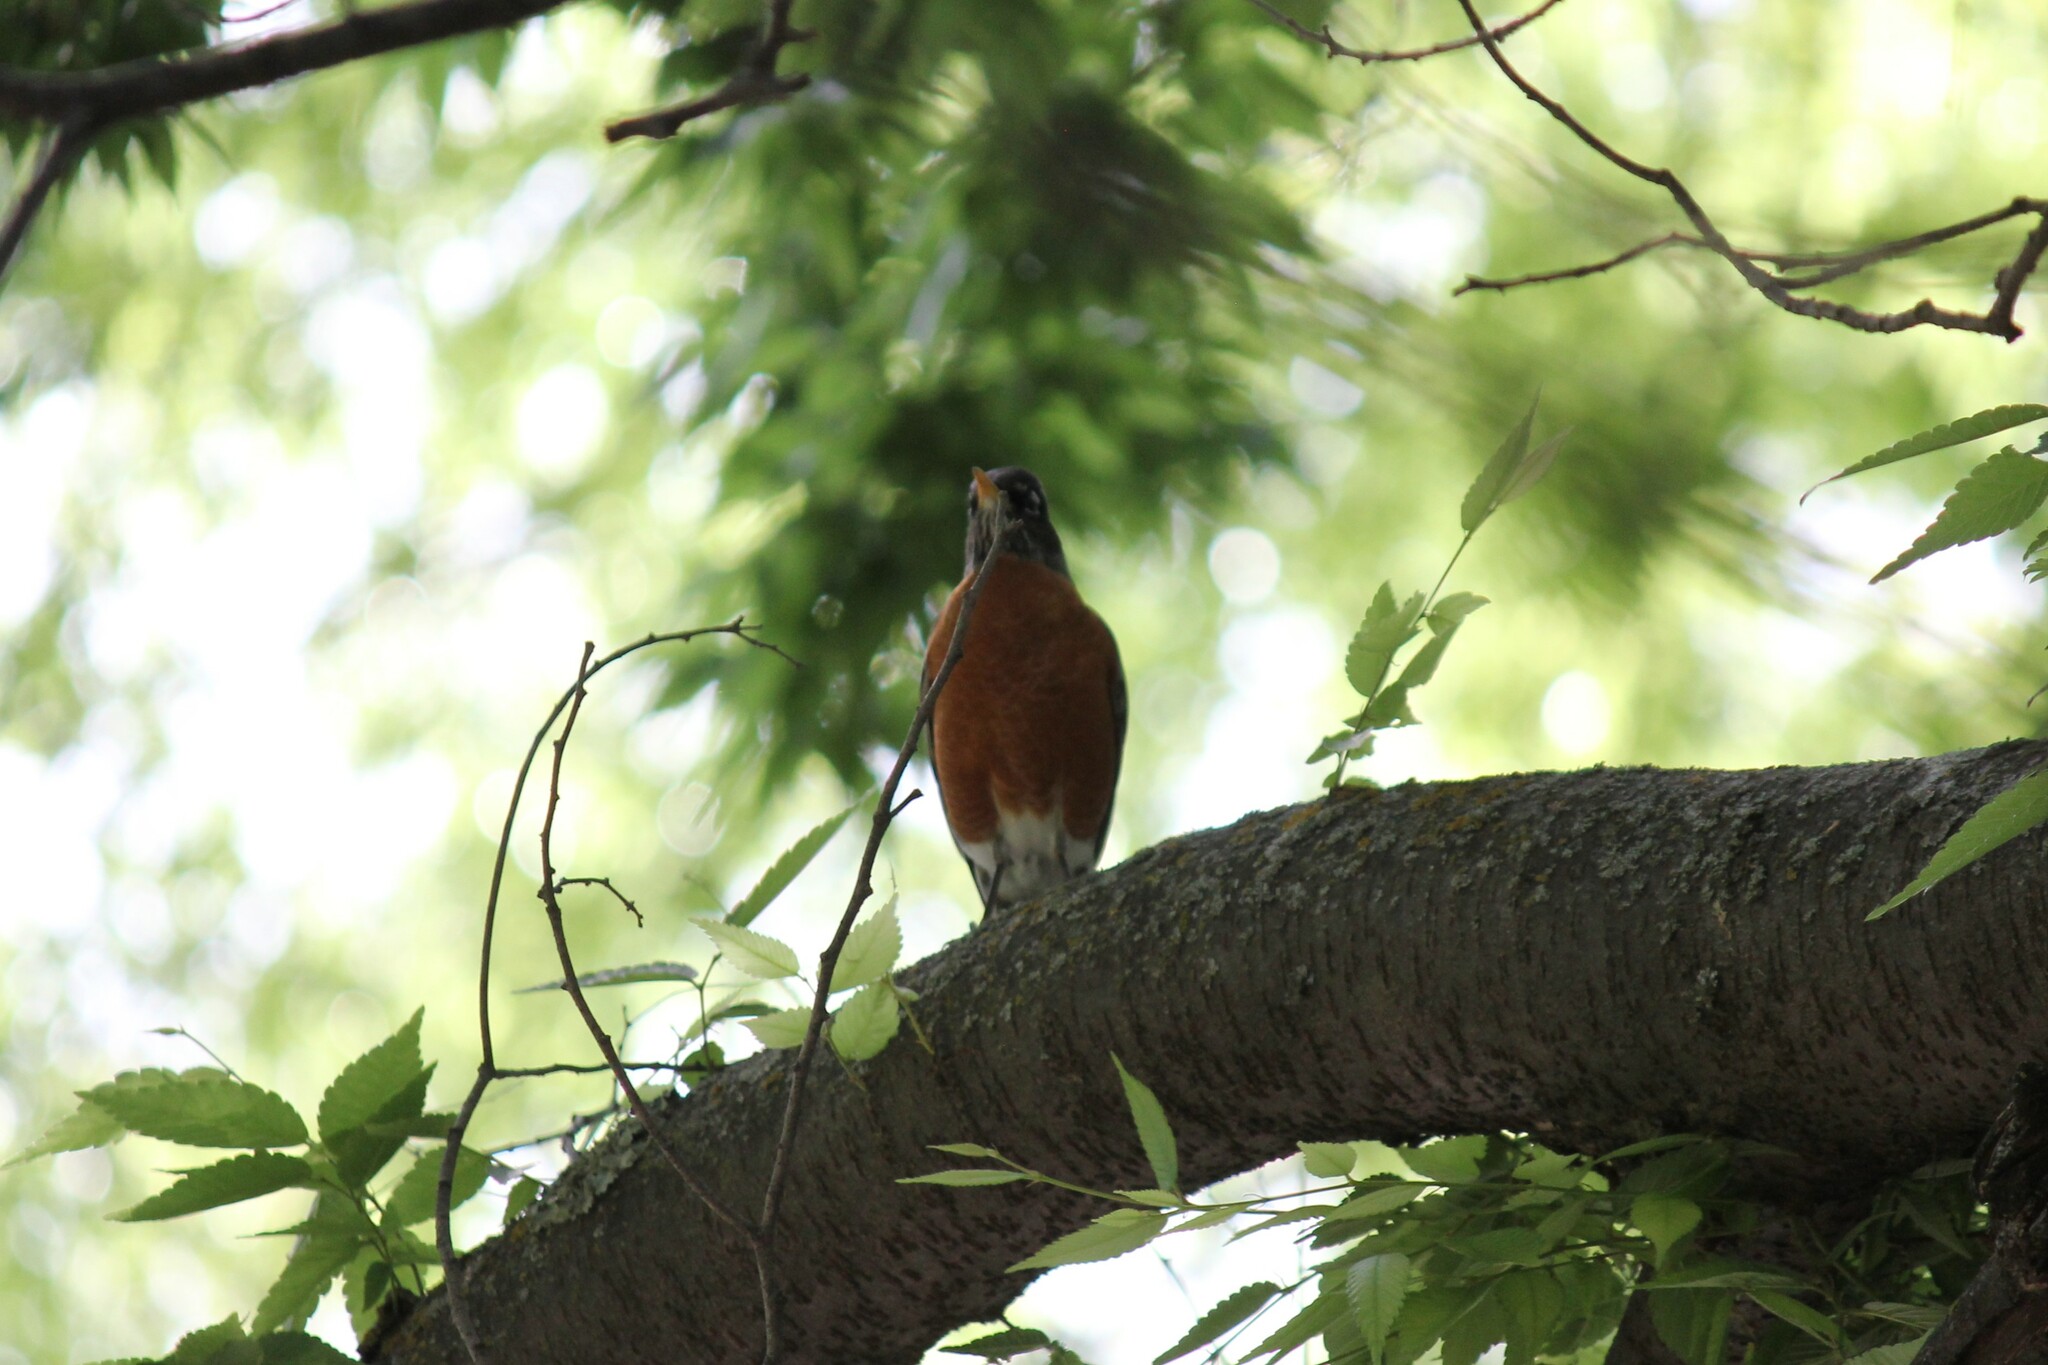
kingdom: Animalia
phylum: Chordata
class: Aves
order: Passeriformes
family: Turdidae
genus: Turdus
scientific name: Turdus migratorius
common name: American robin
